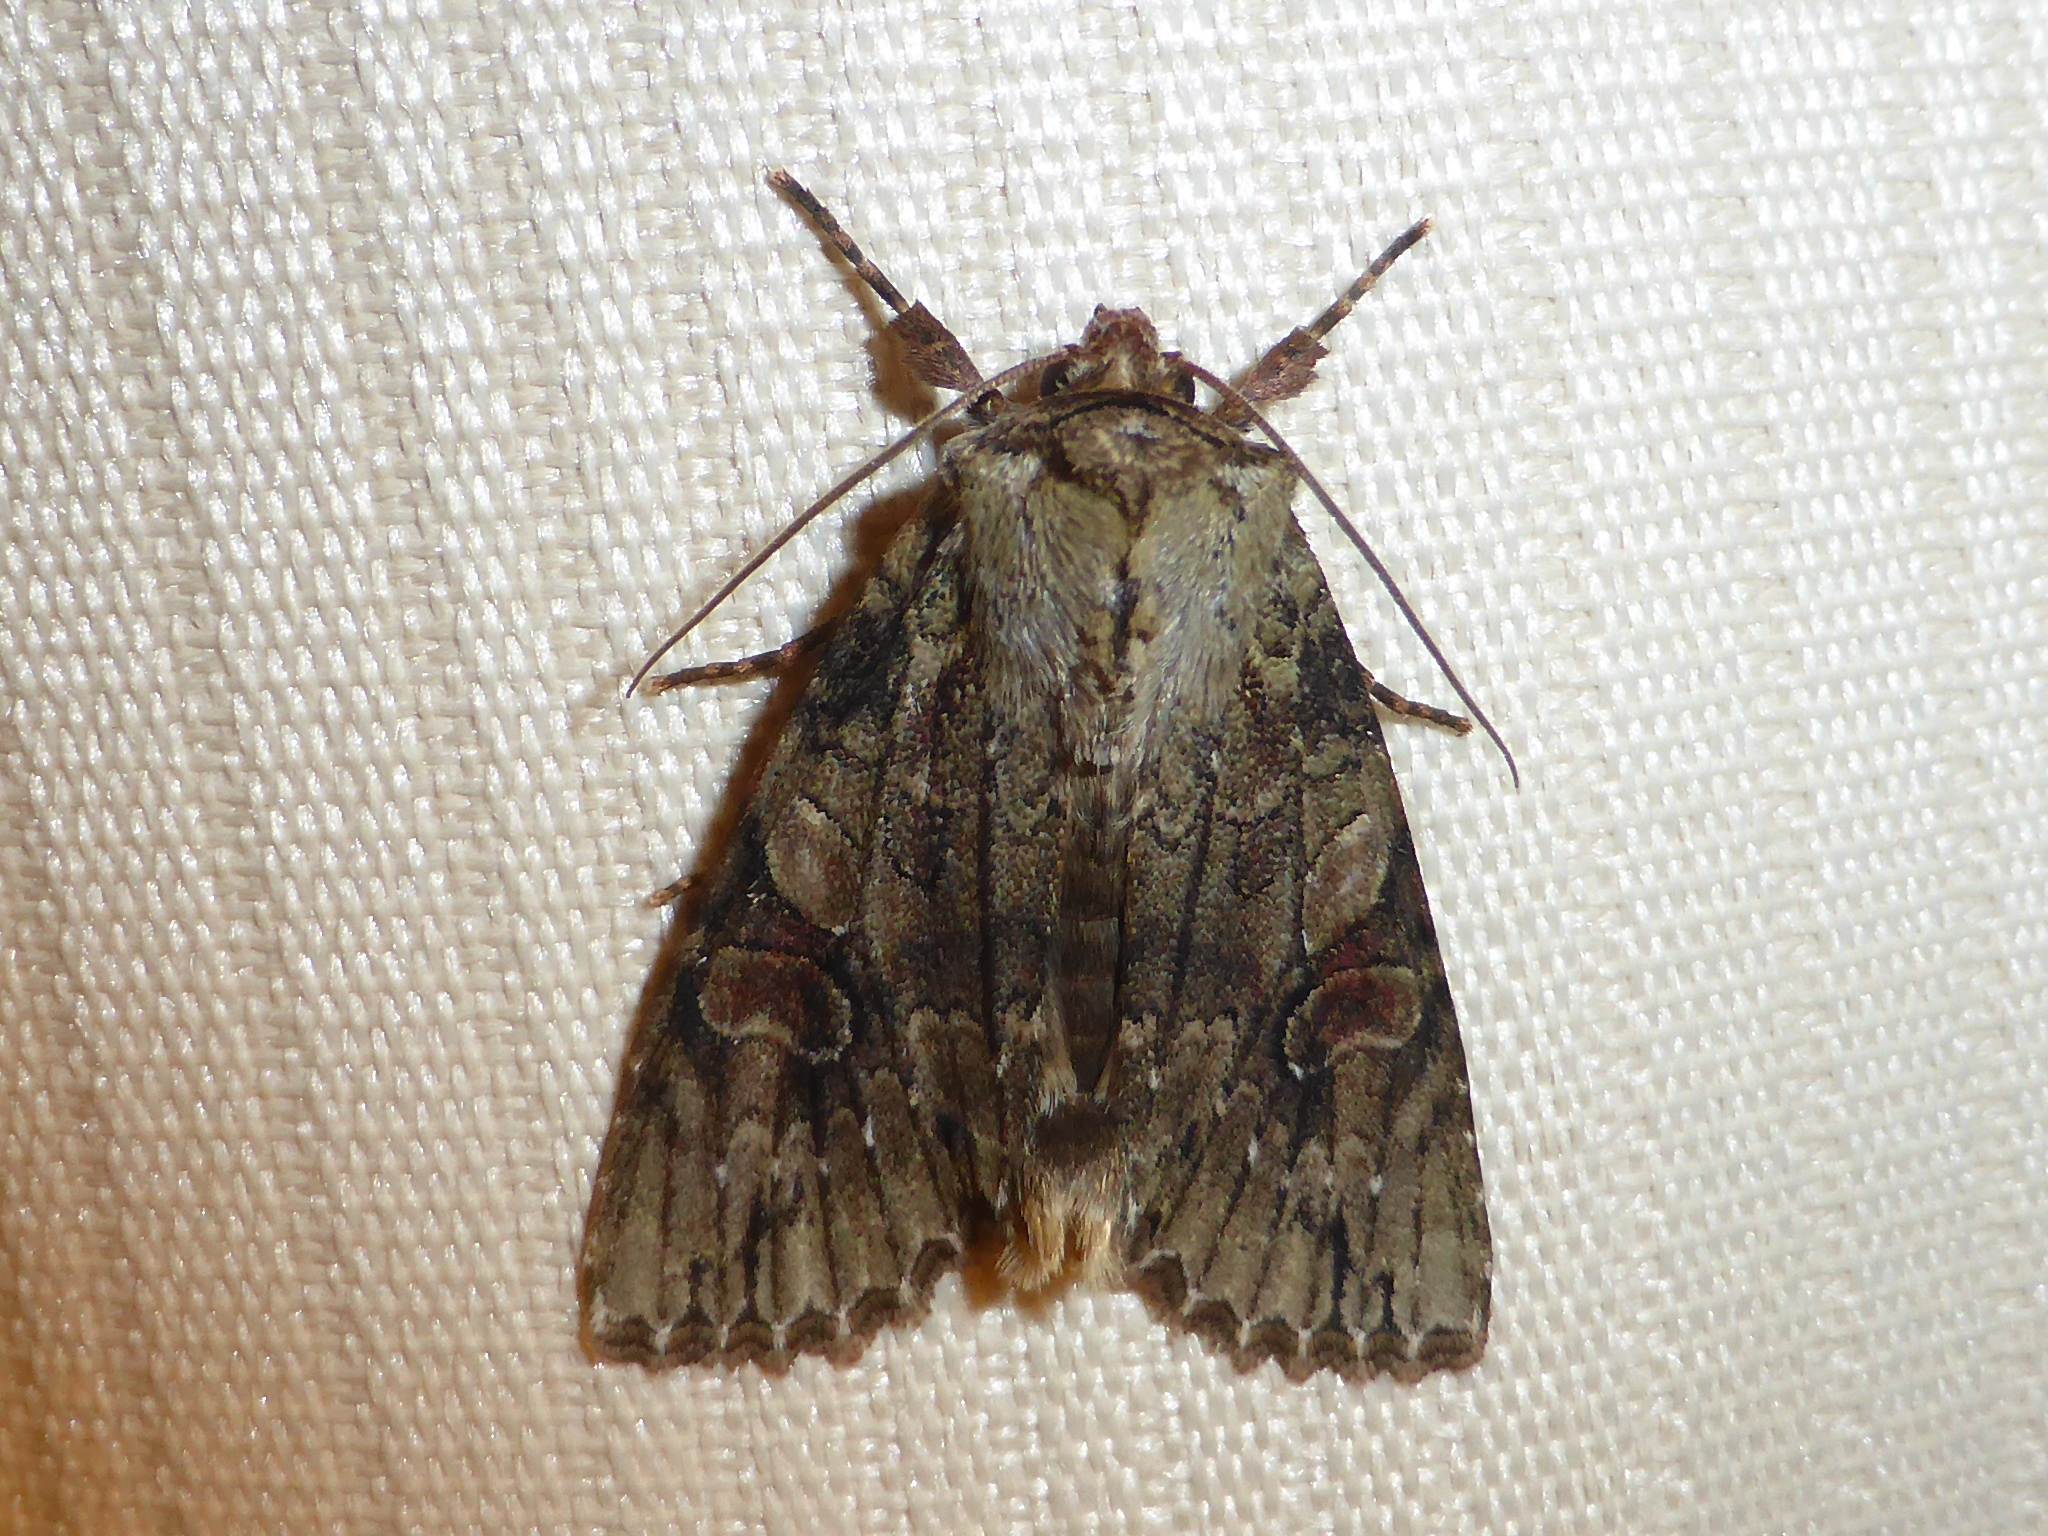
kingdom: Animalia
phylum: Arthropoda
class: Insecta
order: Lepidoptera
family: Noctuidae
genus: Achatia
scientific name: Achatia latex
